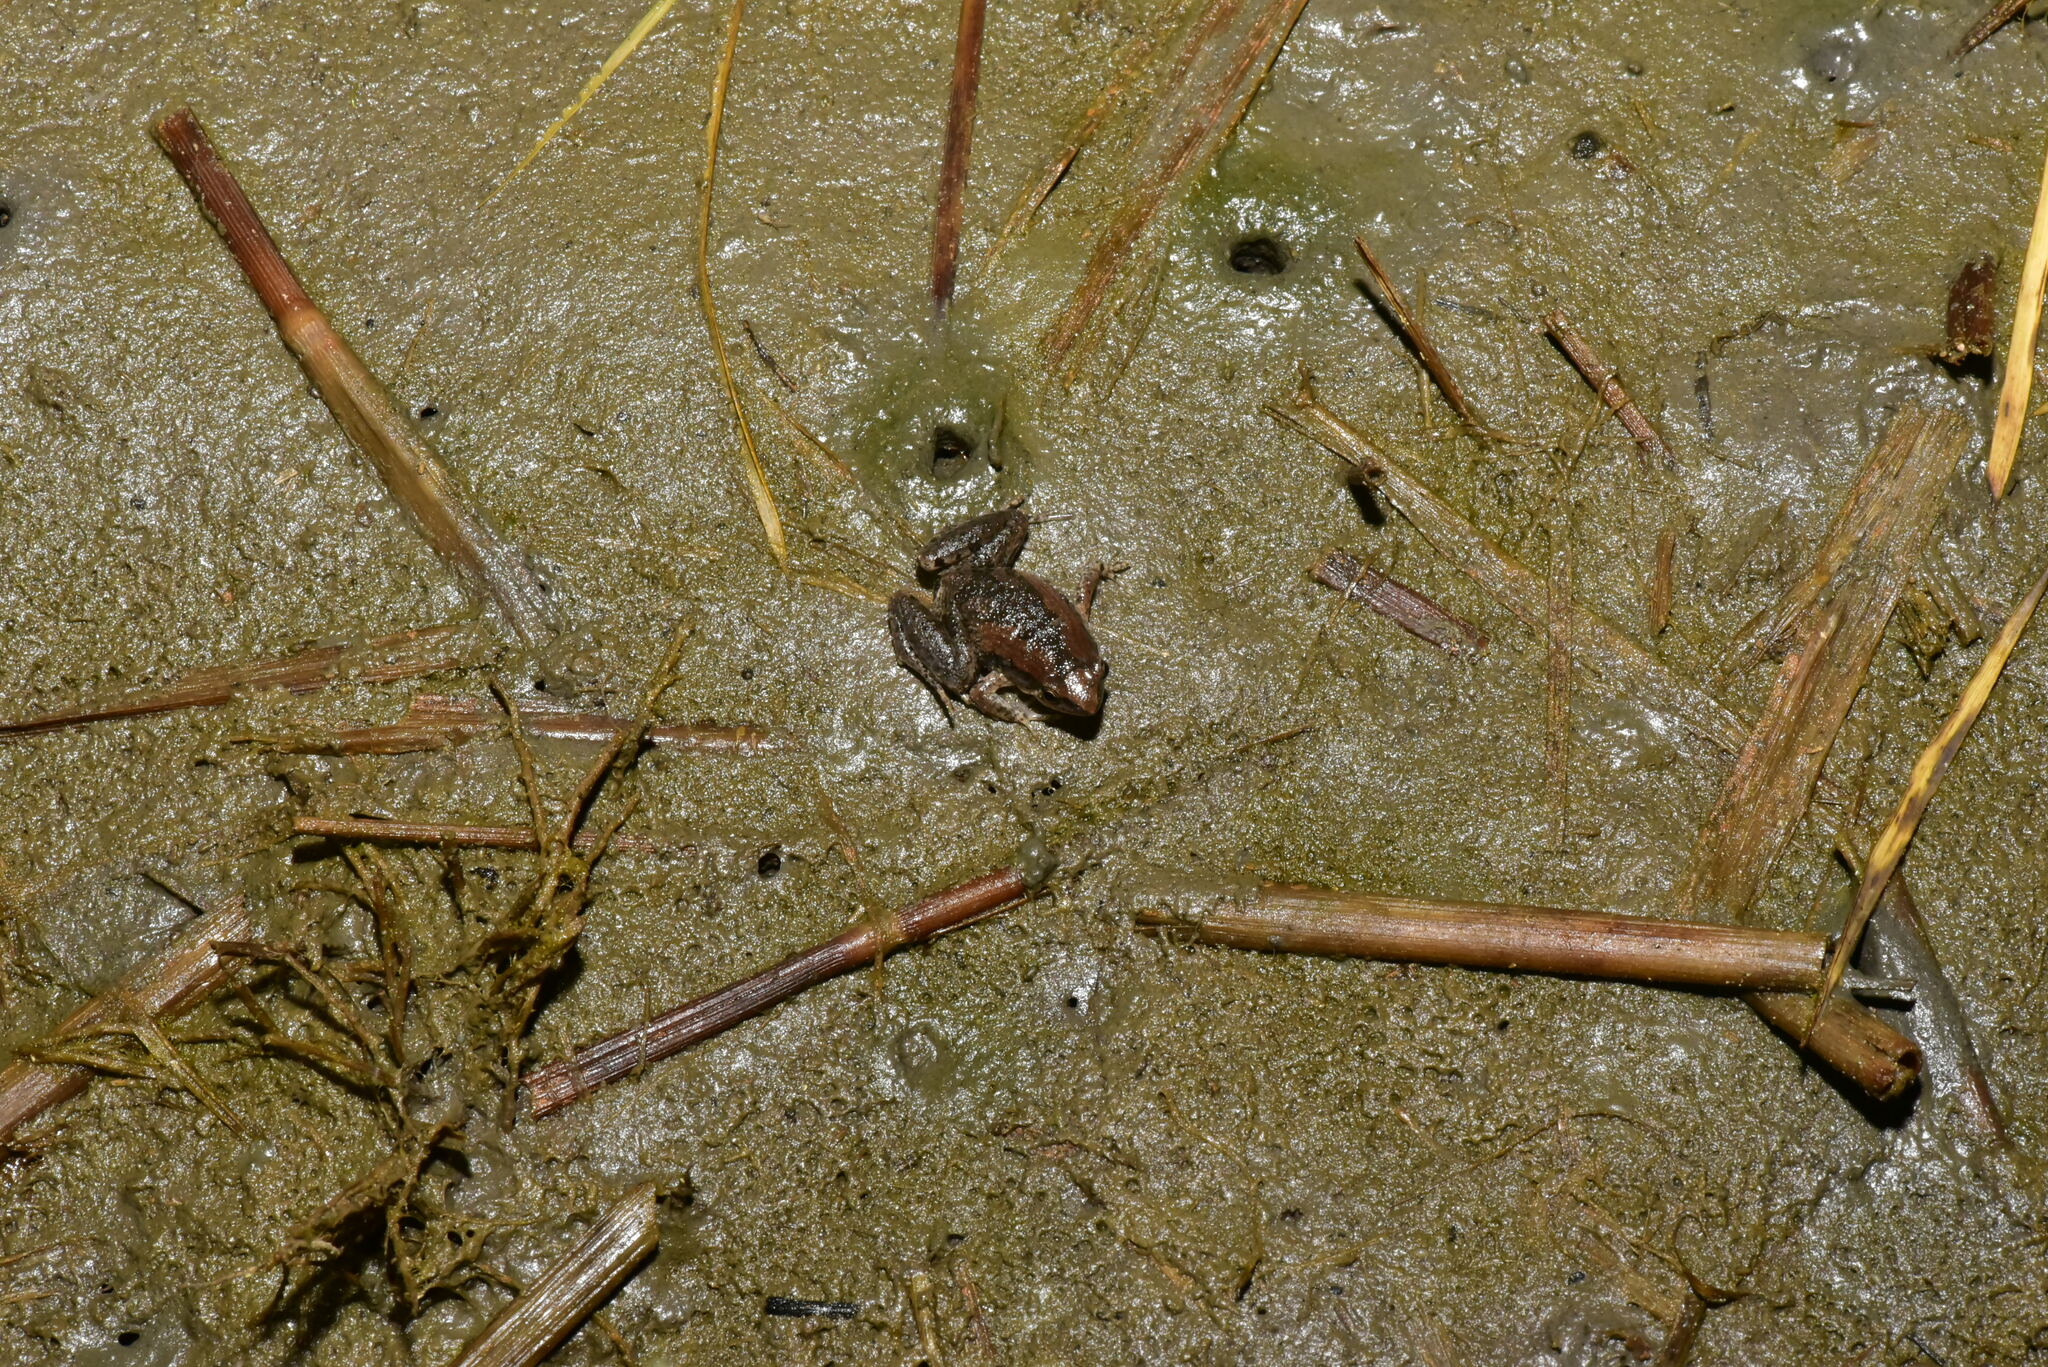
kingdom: Animalia
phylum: Chordata
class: Amphibia
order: Anura
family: Microhylidae
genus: Microhyla
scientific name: Microhyla fissipes
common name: Ornate narrow-mouthed frog
